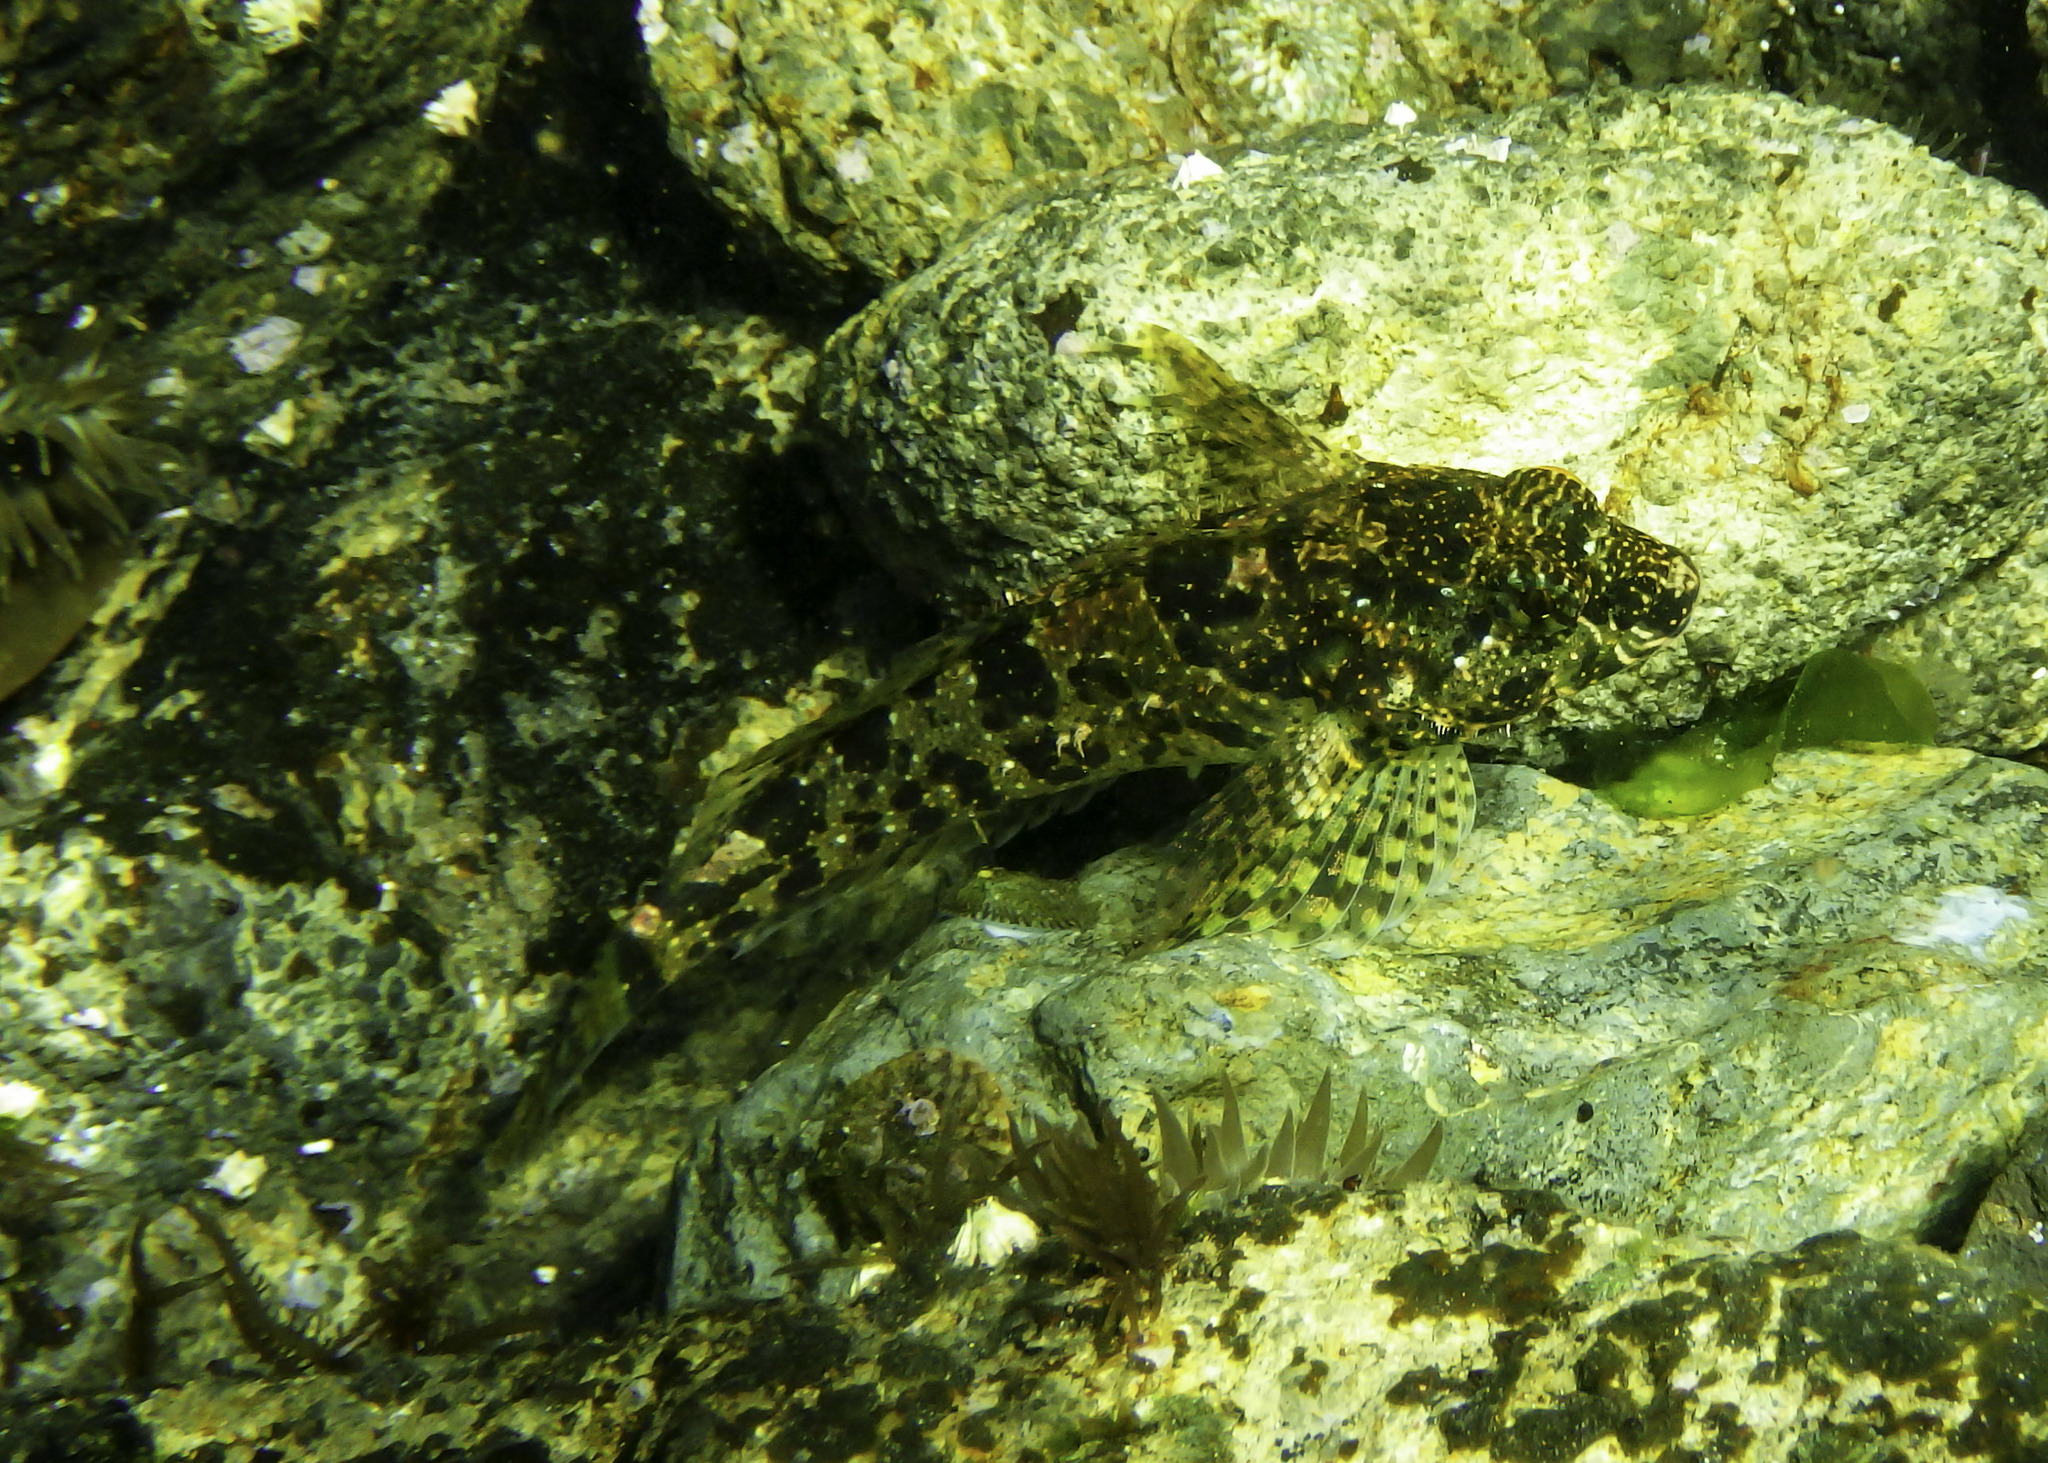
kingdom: Animalia
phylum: Chordata
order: Scorpaeniformes
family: Cottidae
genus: Clinocottus
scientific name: Clinocottus analis
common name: Woolly sculpin
